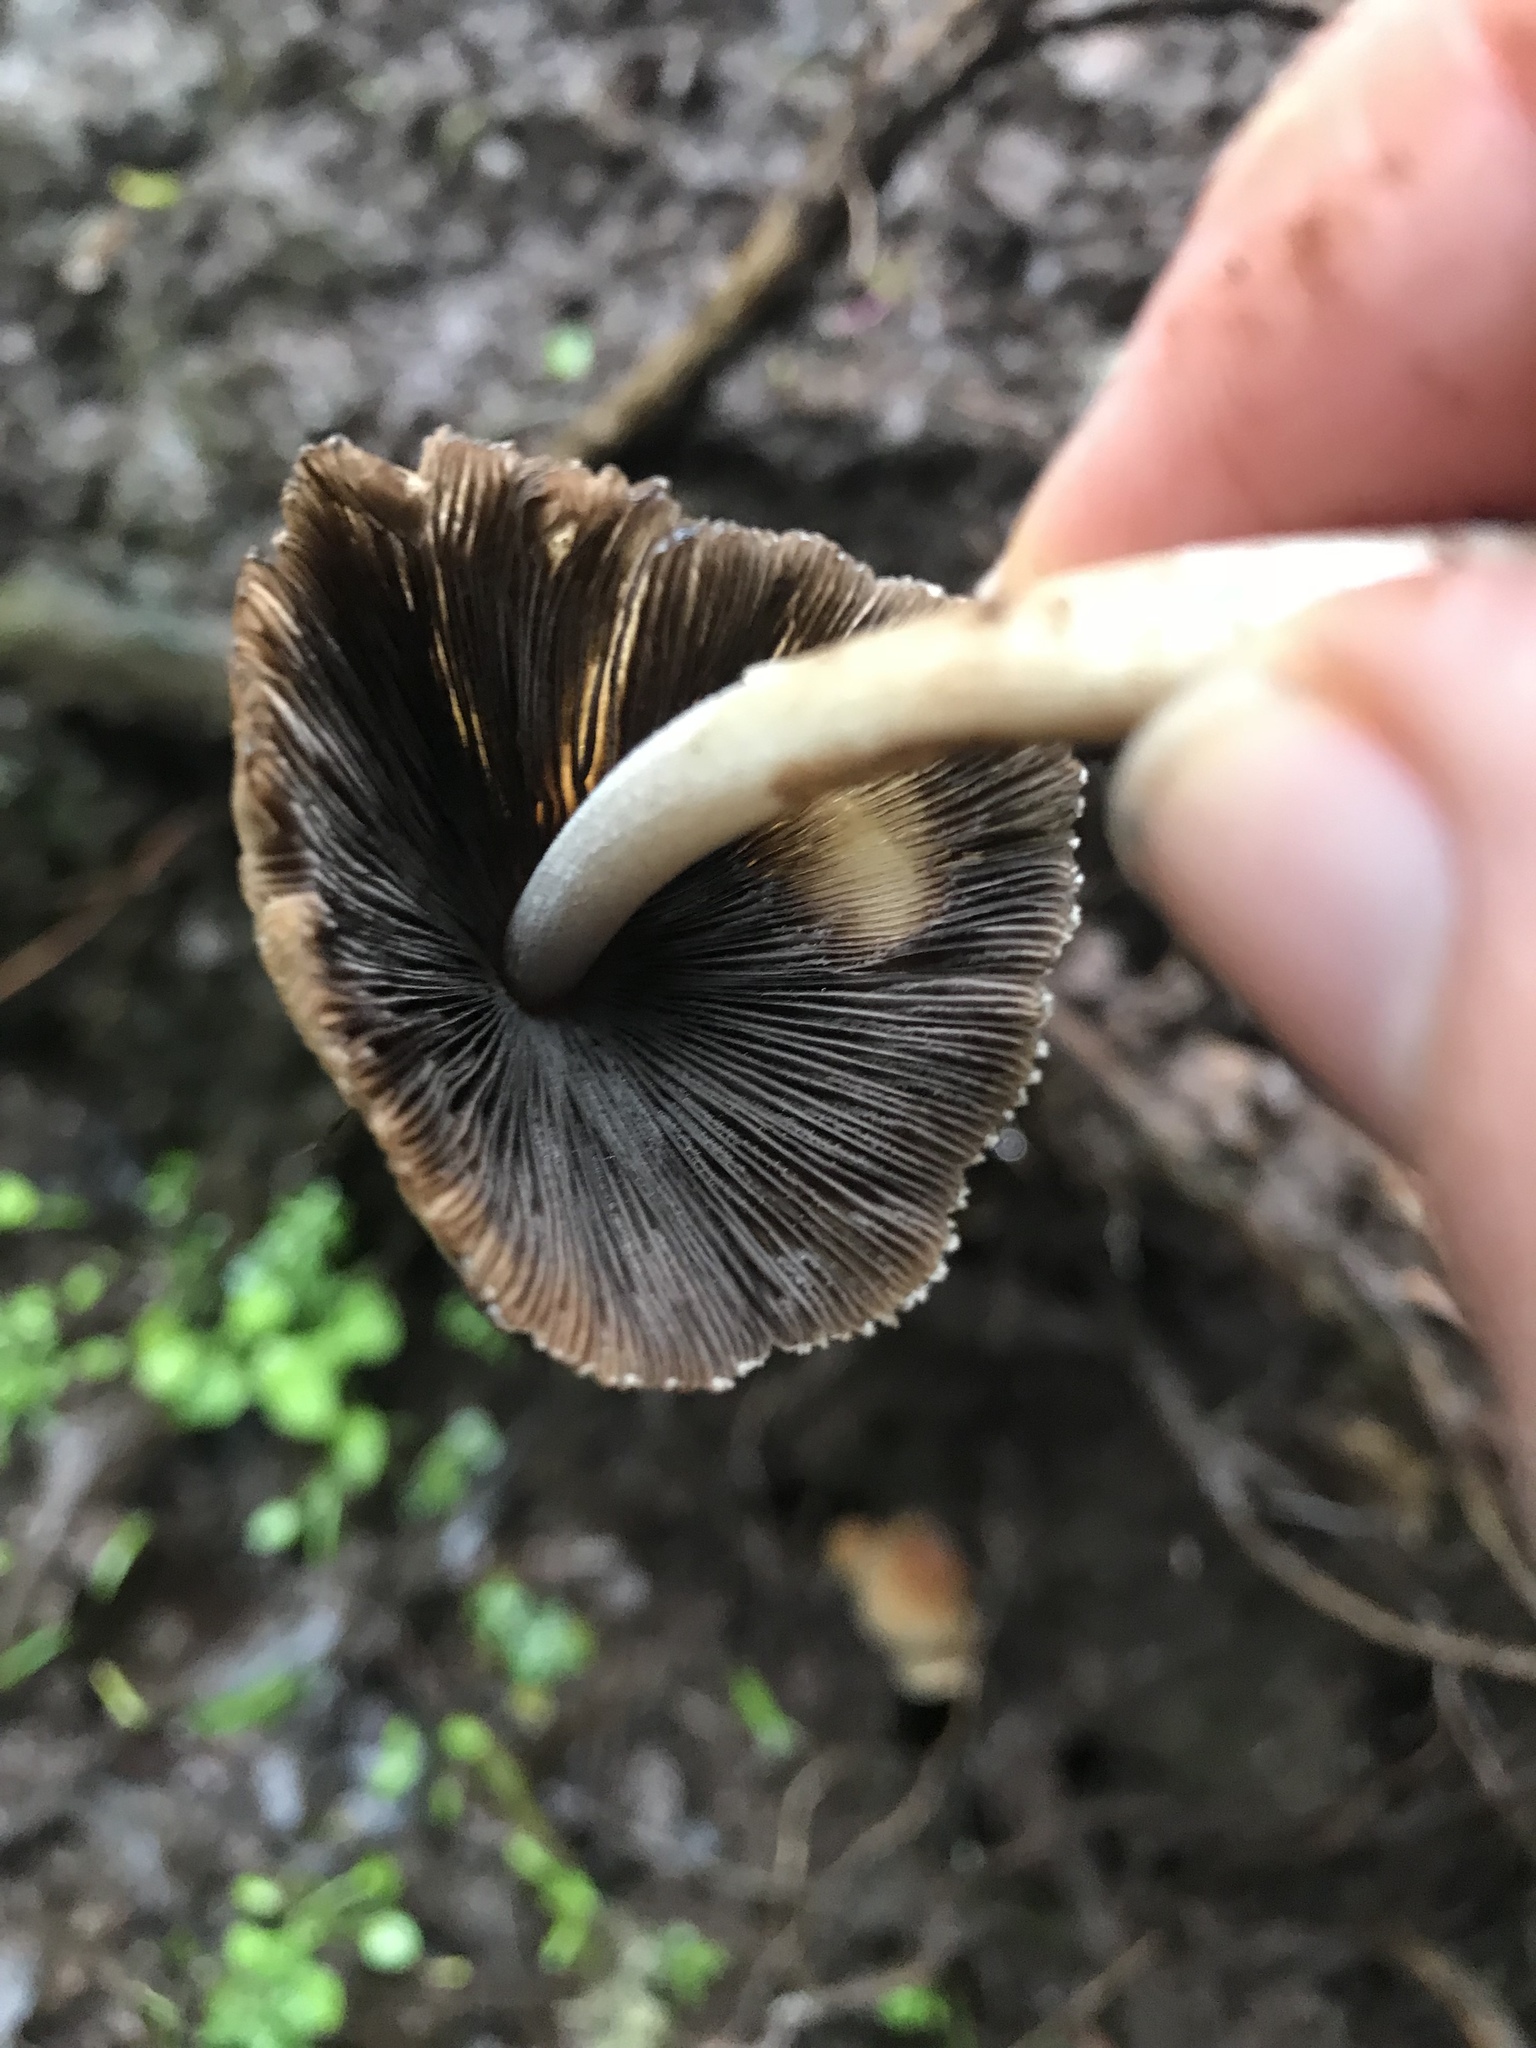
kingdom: Fungi
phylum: Basidiomycota
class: Agaricomycetes
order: Agaricales
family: Psathyrellaceae
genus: Coprinellus
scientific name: Coprinellus micaceus
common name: Glistening ink-cap
